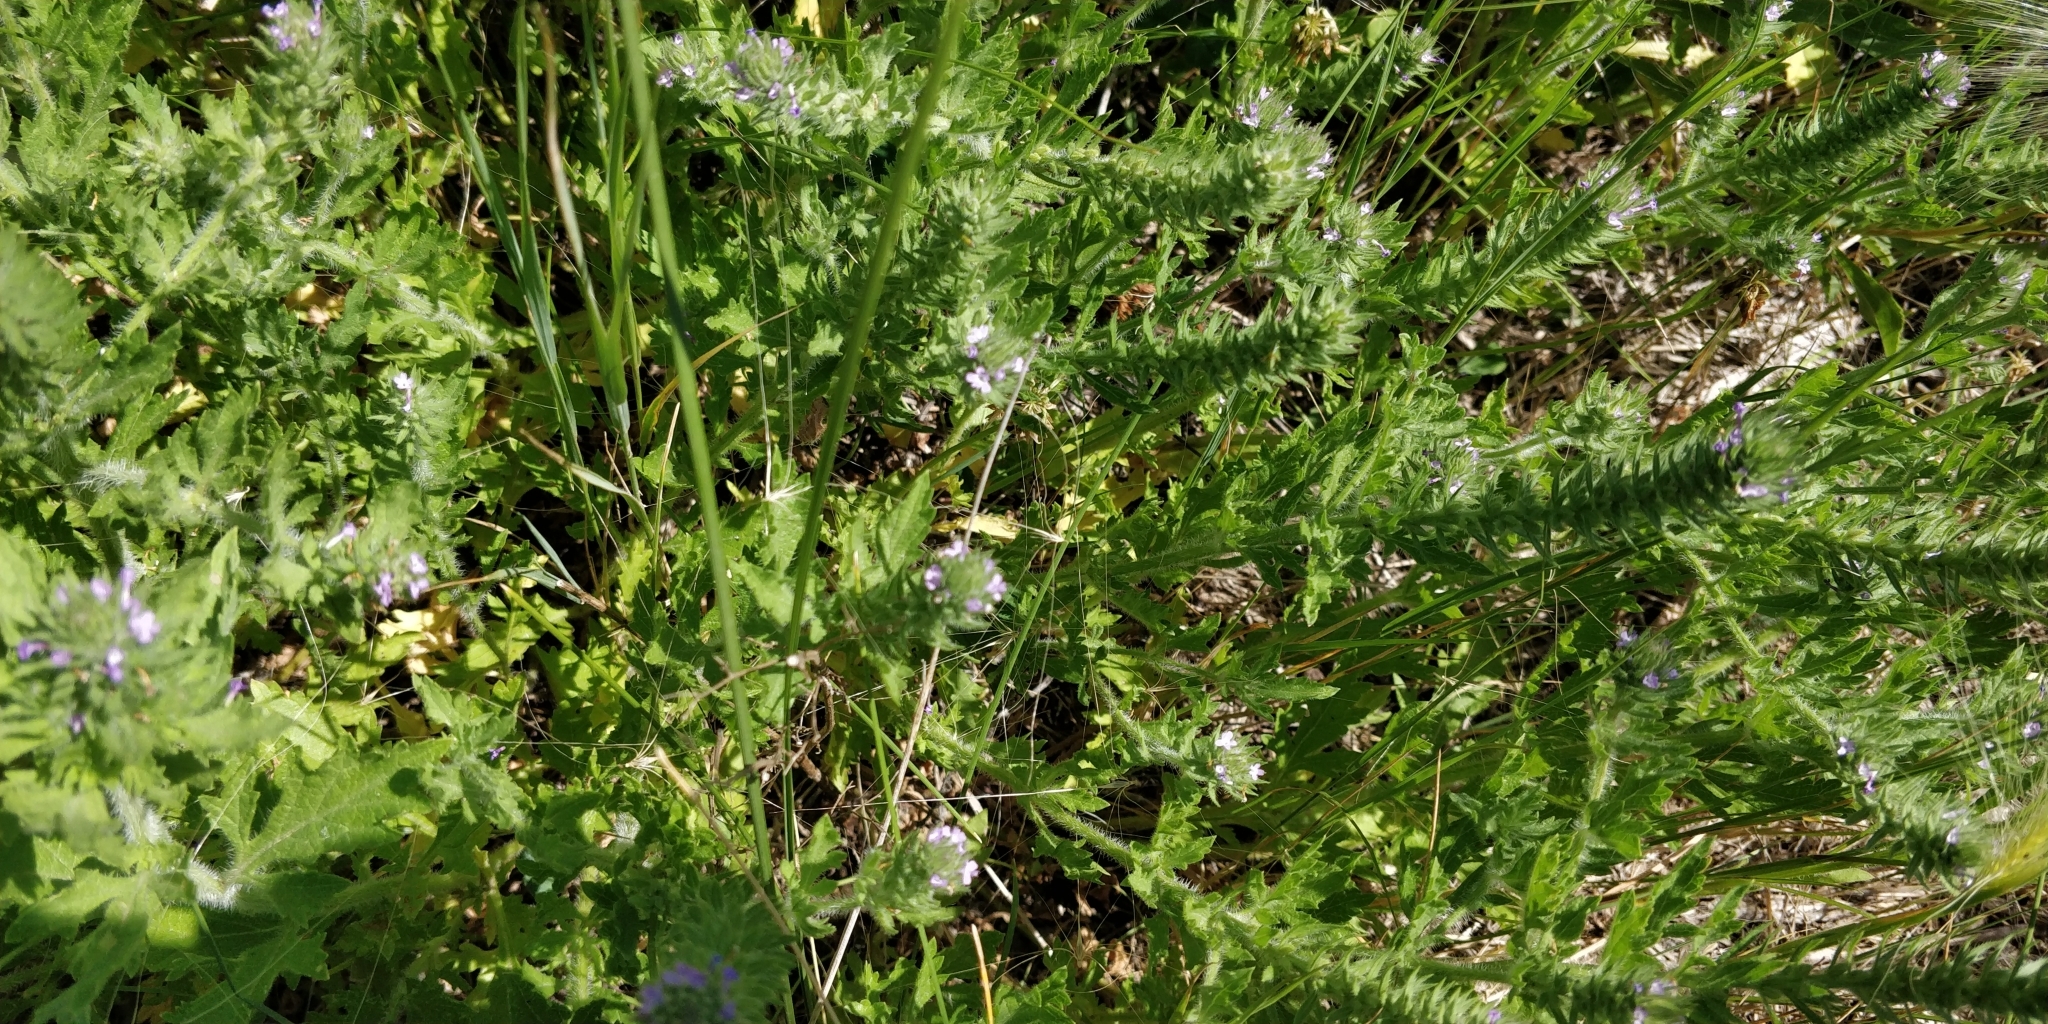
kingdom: Plantae
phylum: Tracheophyta
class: Magnoliopsida
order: Lamiales
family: Verbenaceae
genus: Verbena
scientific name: Verbena bracteata
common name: Bracted vervain
